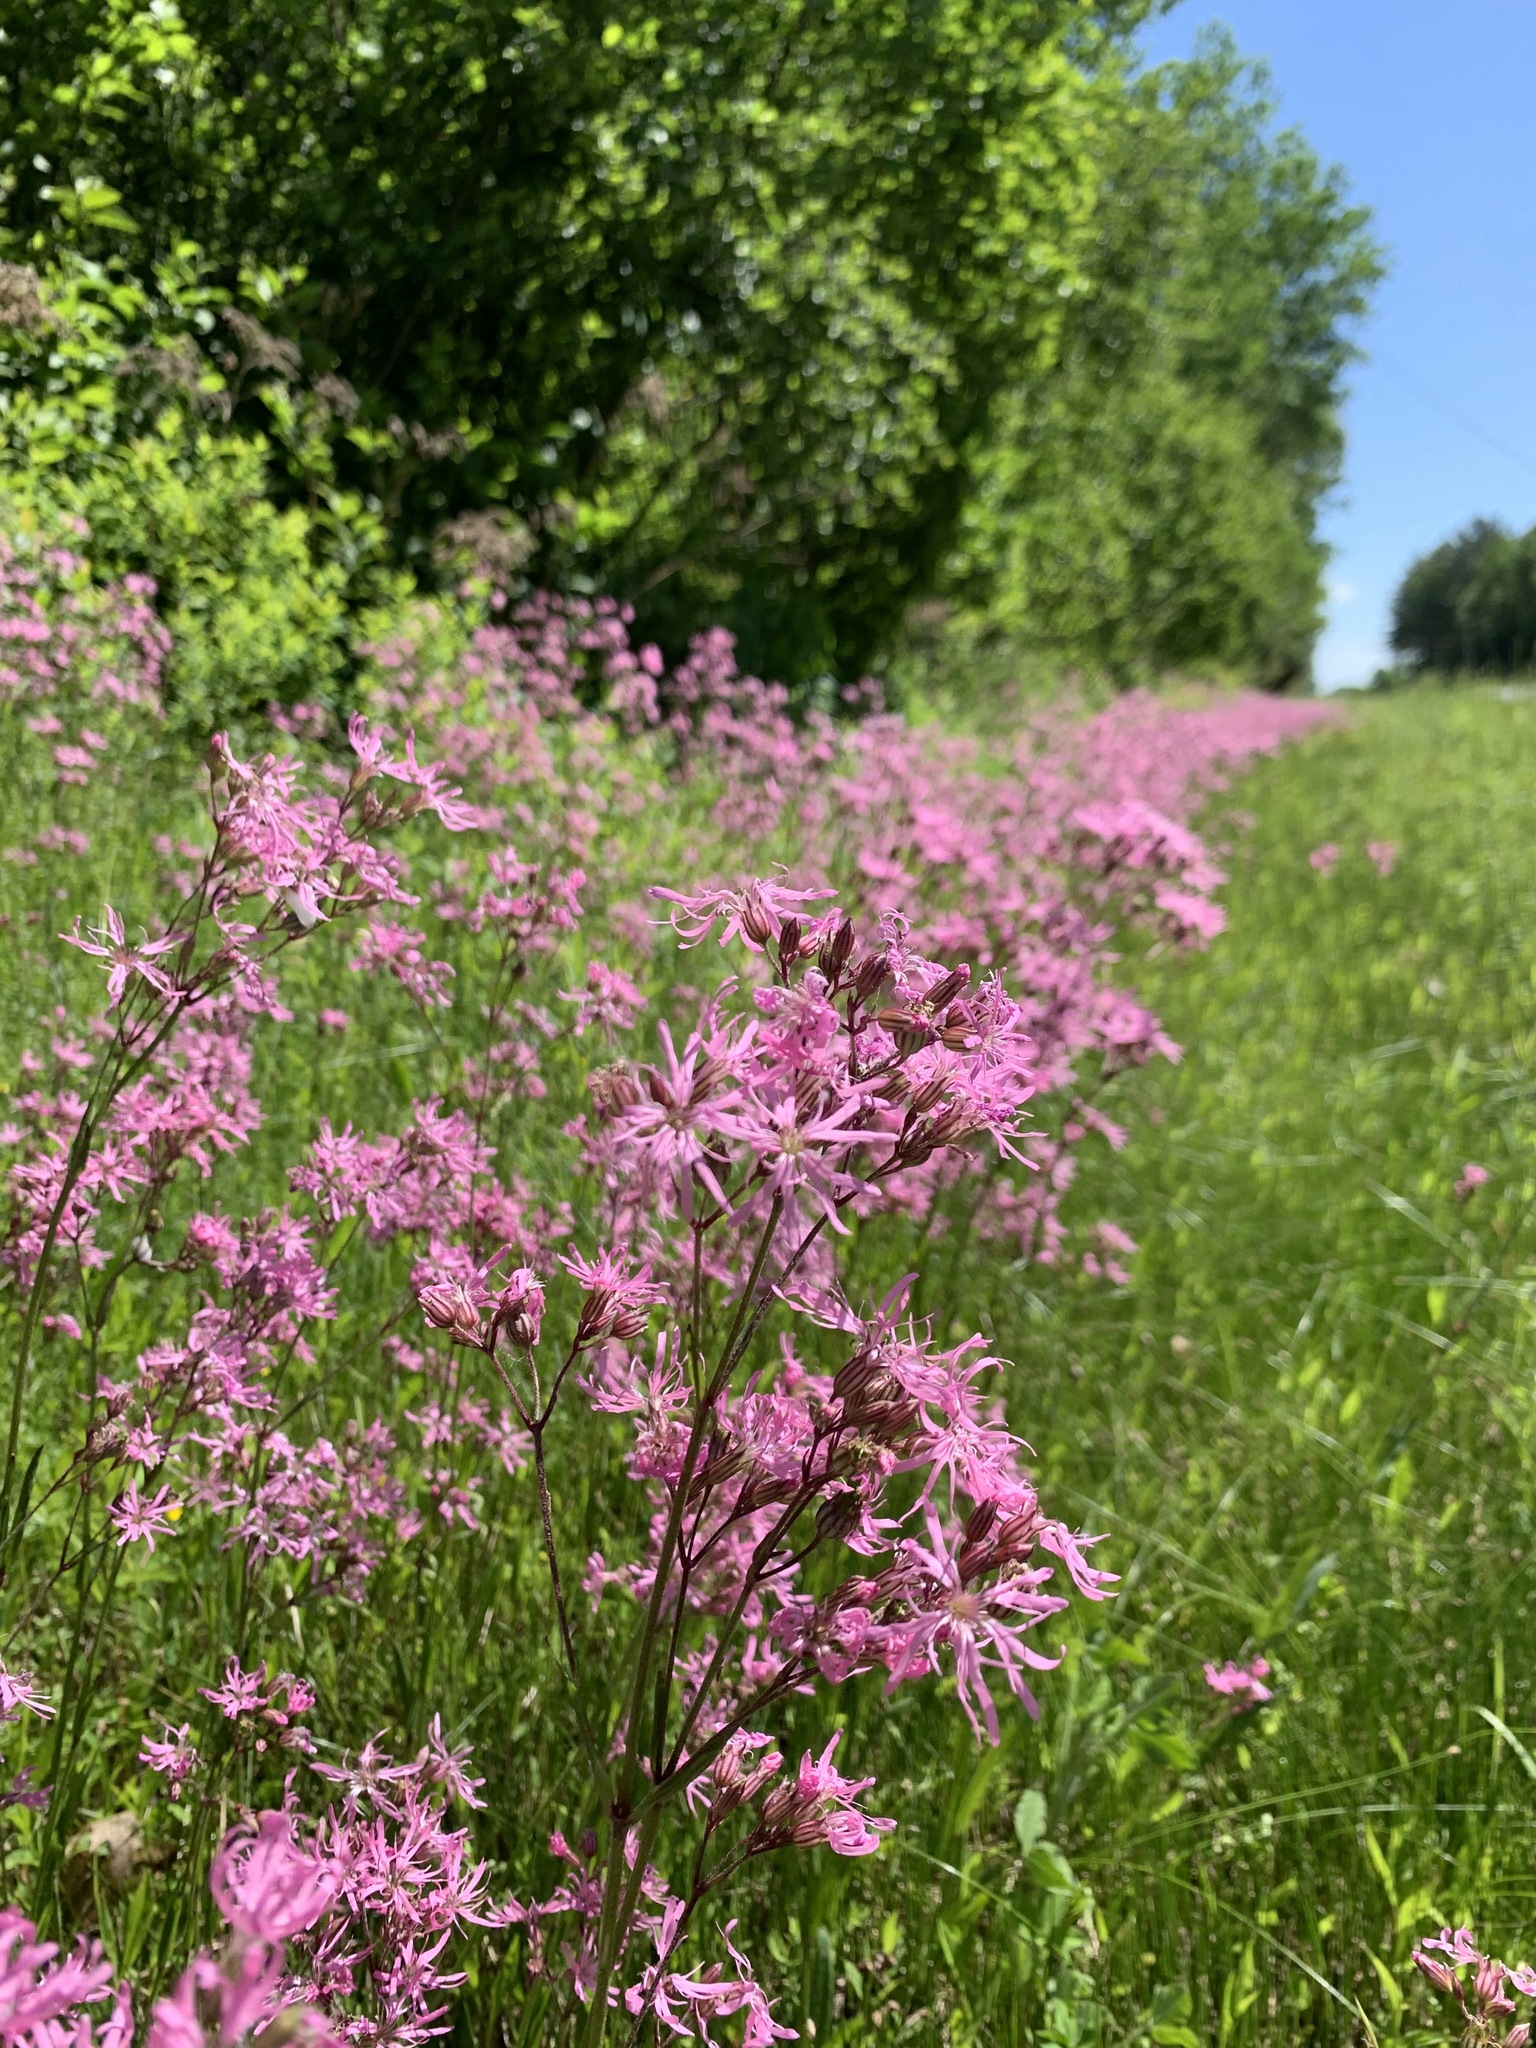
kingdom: Plantae
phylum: Tracheophyta
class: Magnoliopsida
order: Caryophyllales
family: Caryophyllaceae
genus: Silene
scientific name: Silene flos-cuculi
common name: Ragged-robin
